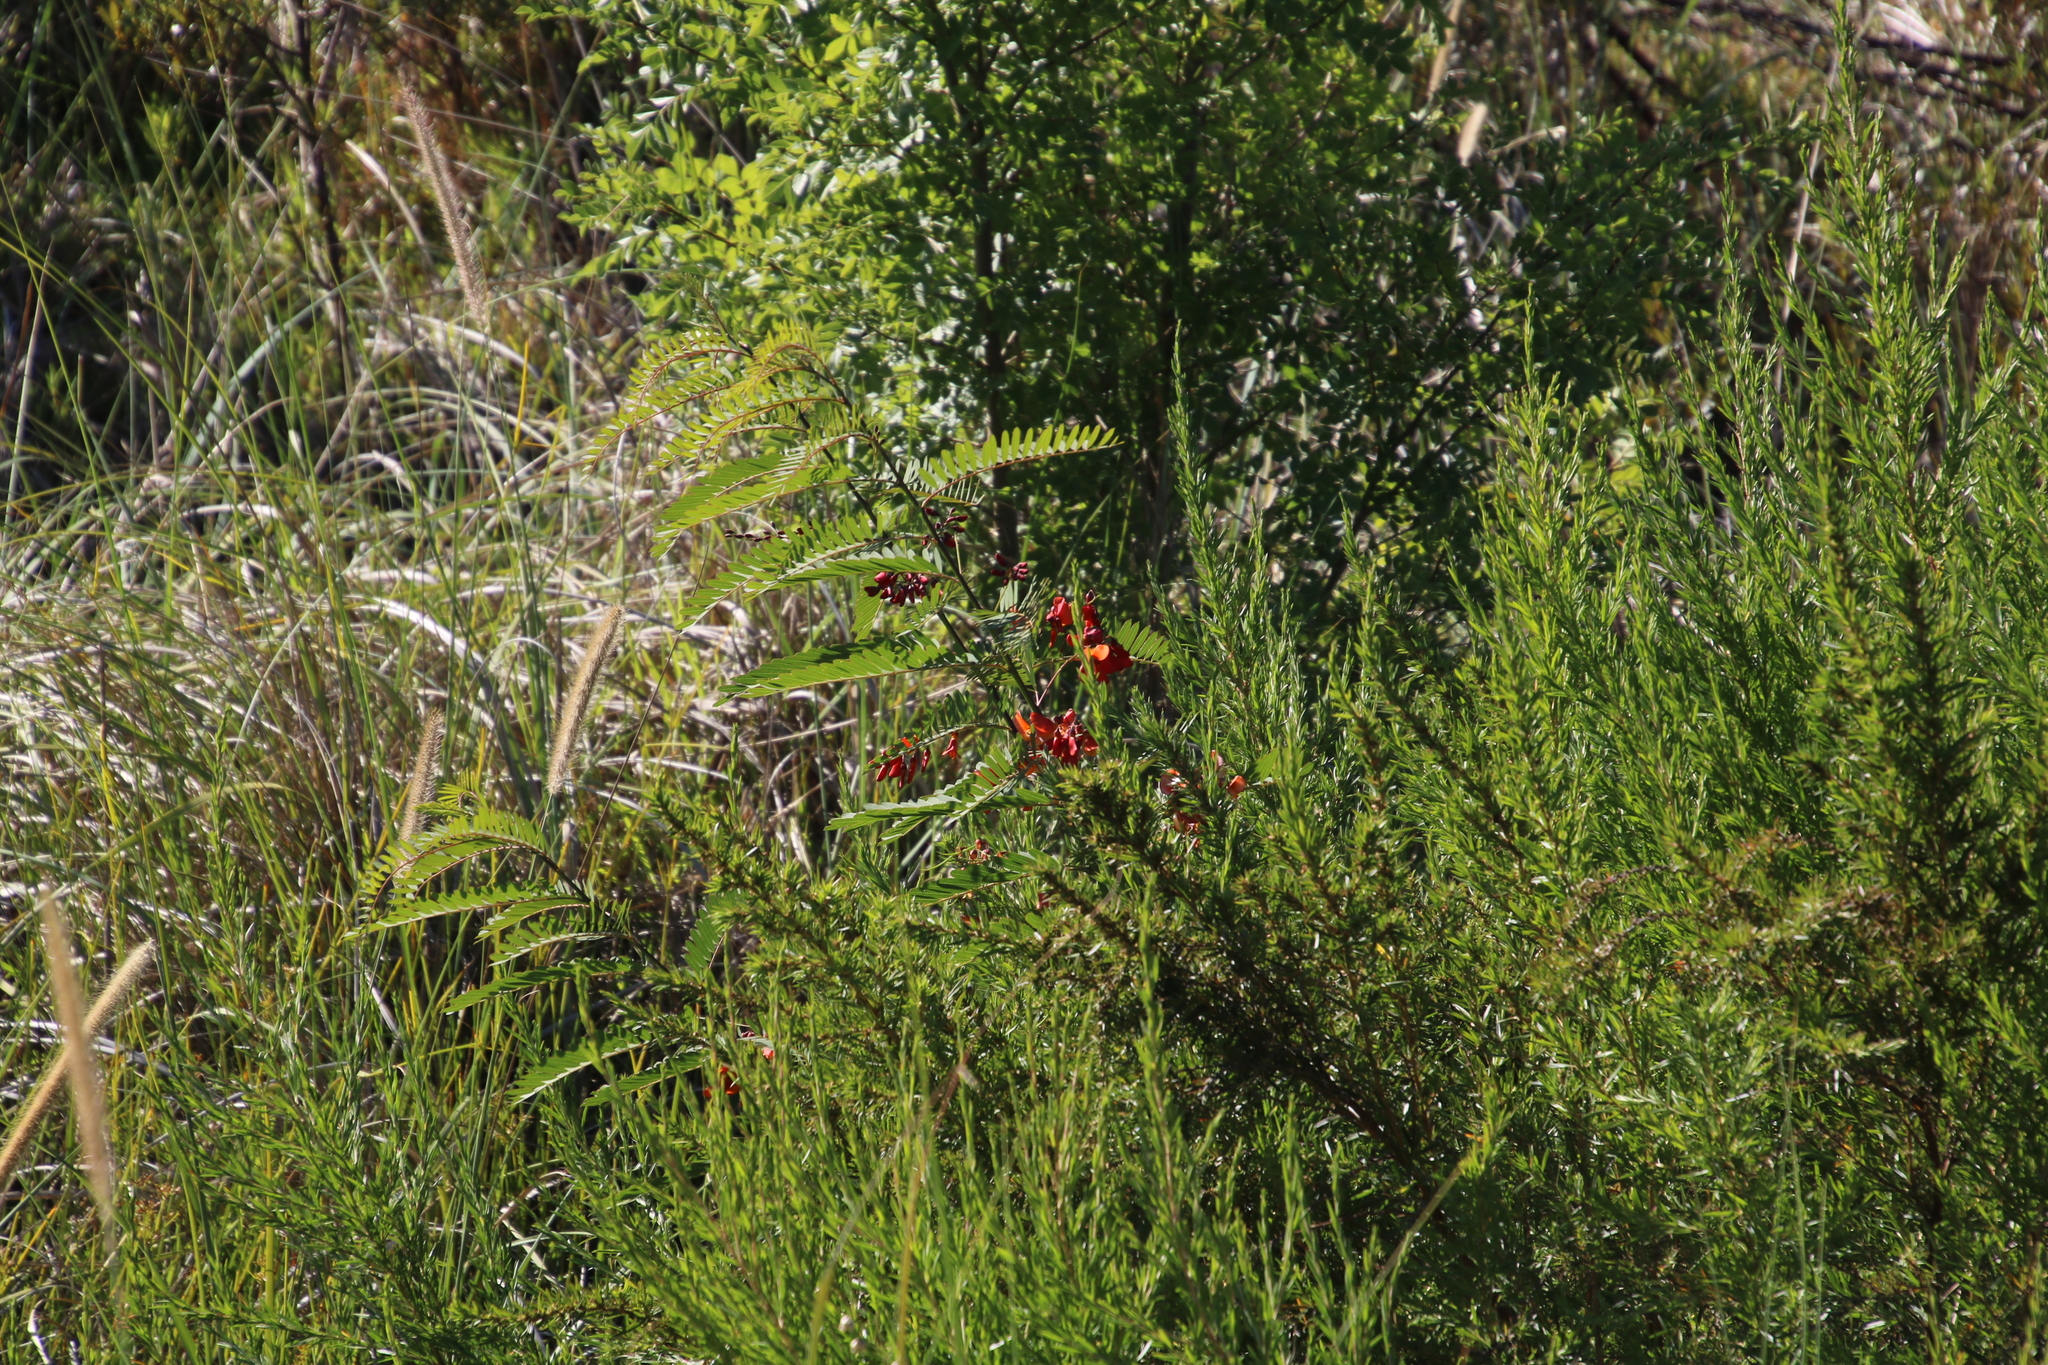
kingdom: Plantae
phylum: Tracheophyta
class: Magnoliopsida
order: Fabales
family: Fabaceae
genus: Sesbania
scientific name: Sesbania punicea
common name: Rattlebox
